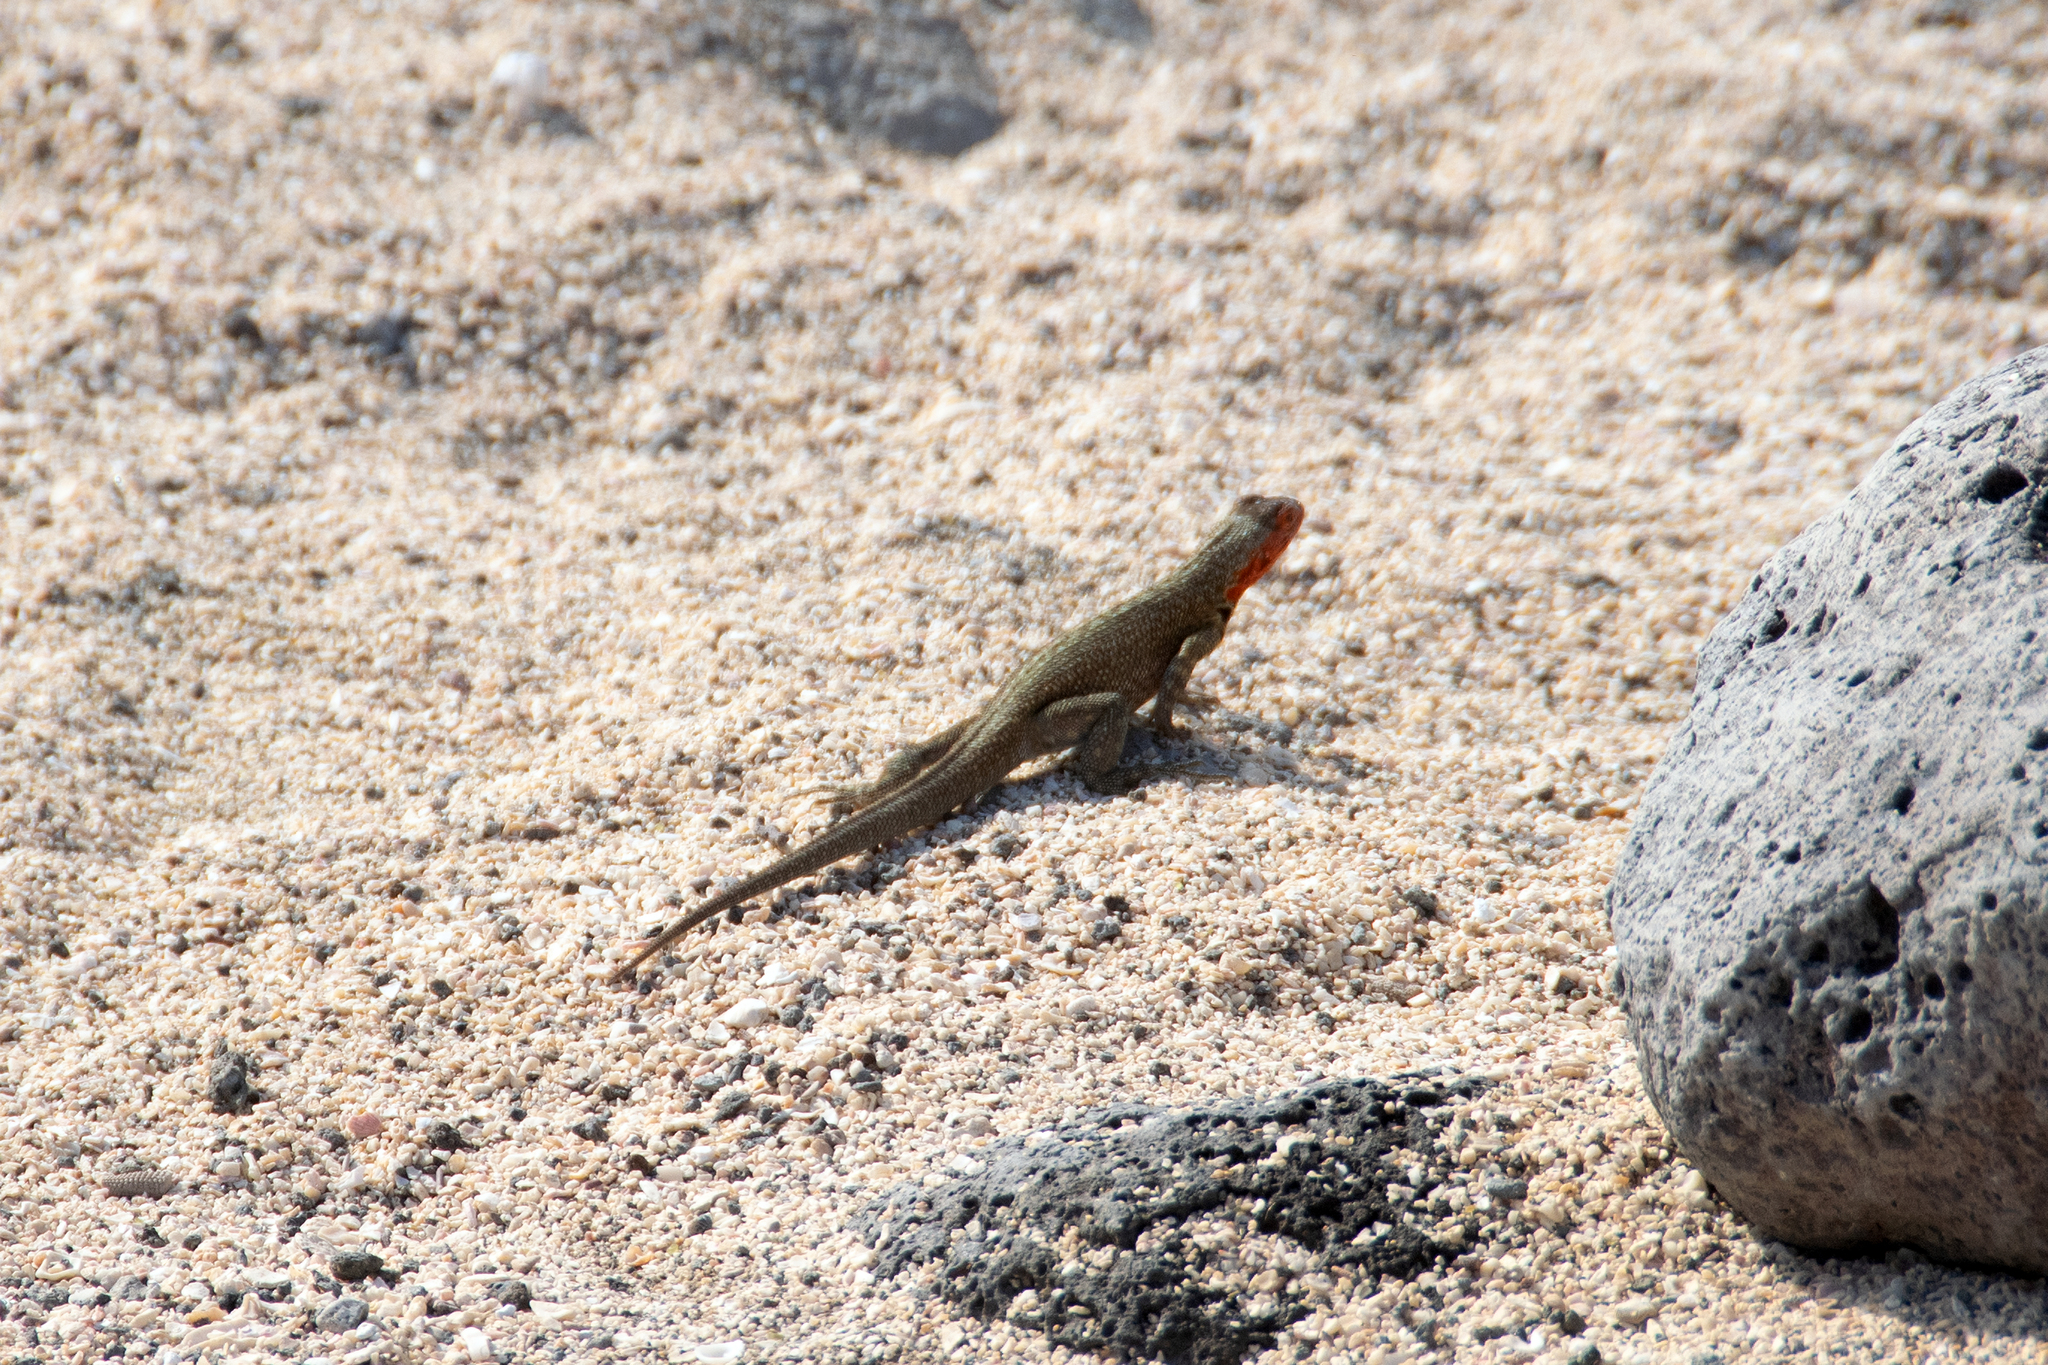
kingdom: Animalia
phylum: Chordata
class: Squamata
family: Tropiduridae
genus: Microlophus
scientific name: Microlophus indefatigabilis
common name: Galapagos lava lizard
